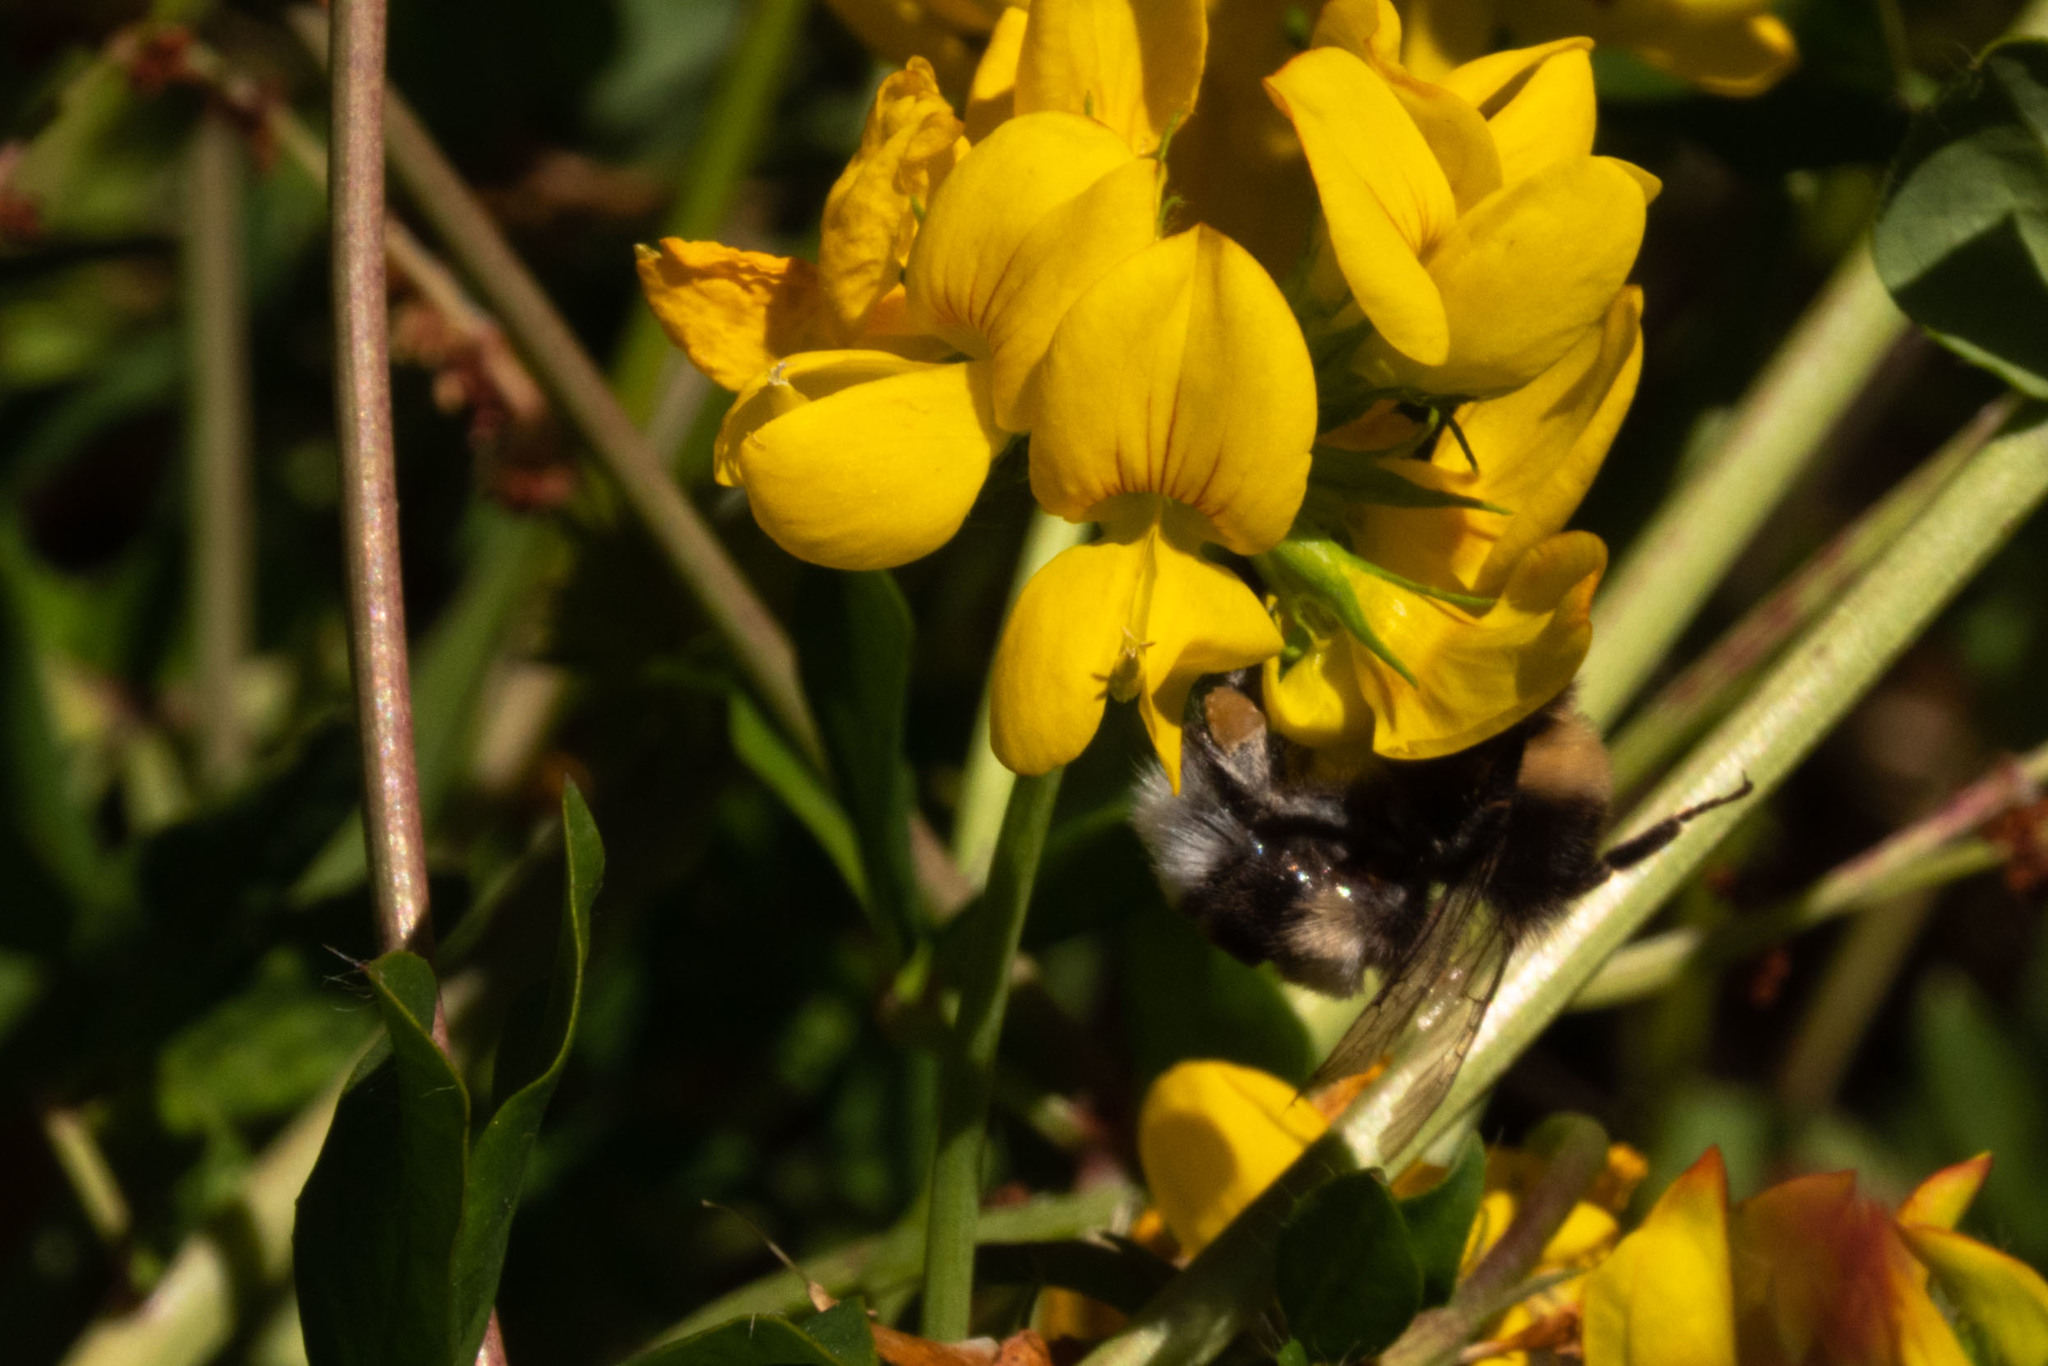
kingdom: Animalia
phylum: Arthropoda
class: Insecta
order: Hymenoptera
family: Apidae
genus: Bombus
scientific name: Bombus terrestris
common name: Buff-tailed bumblebee
